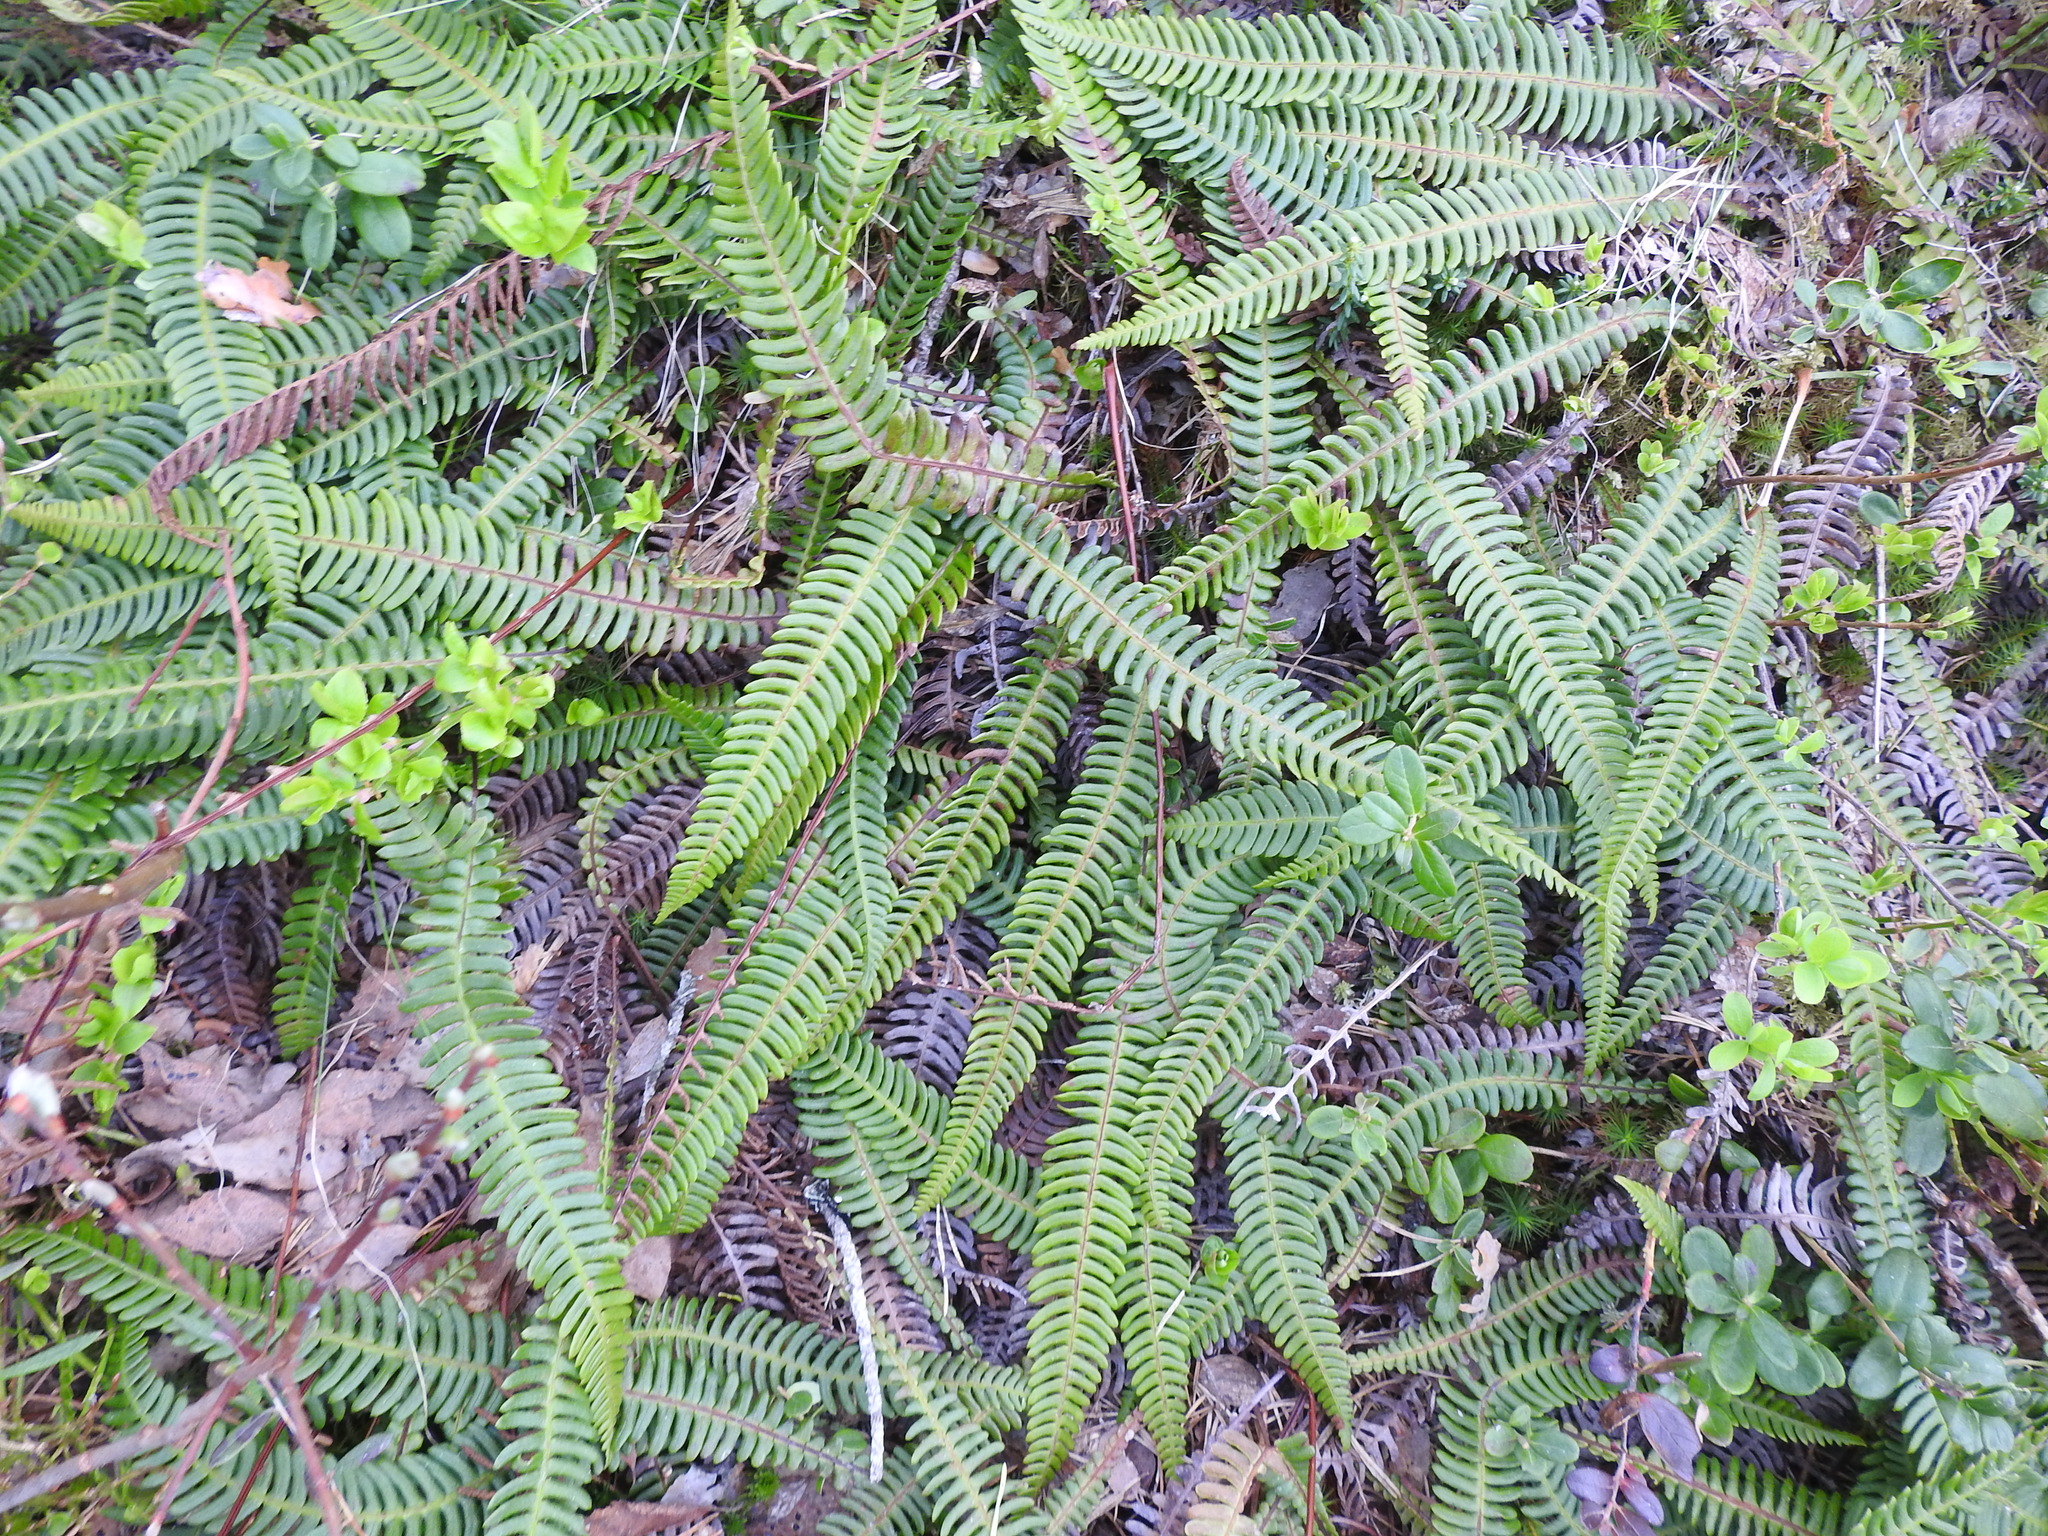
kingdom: Plantae
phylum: Tracheophyta
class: Polypodiopsida
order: Polypodiales
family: Blechnaceae
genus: Struthiopteris
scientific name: Struthiopteris spicant
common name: Deer fern
